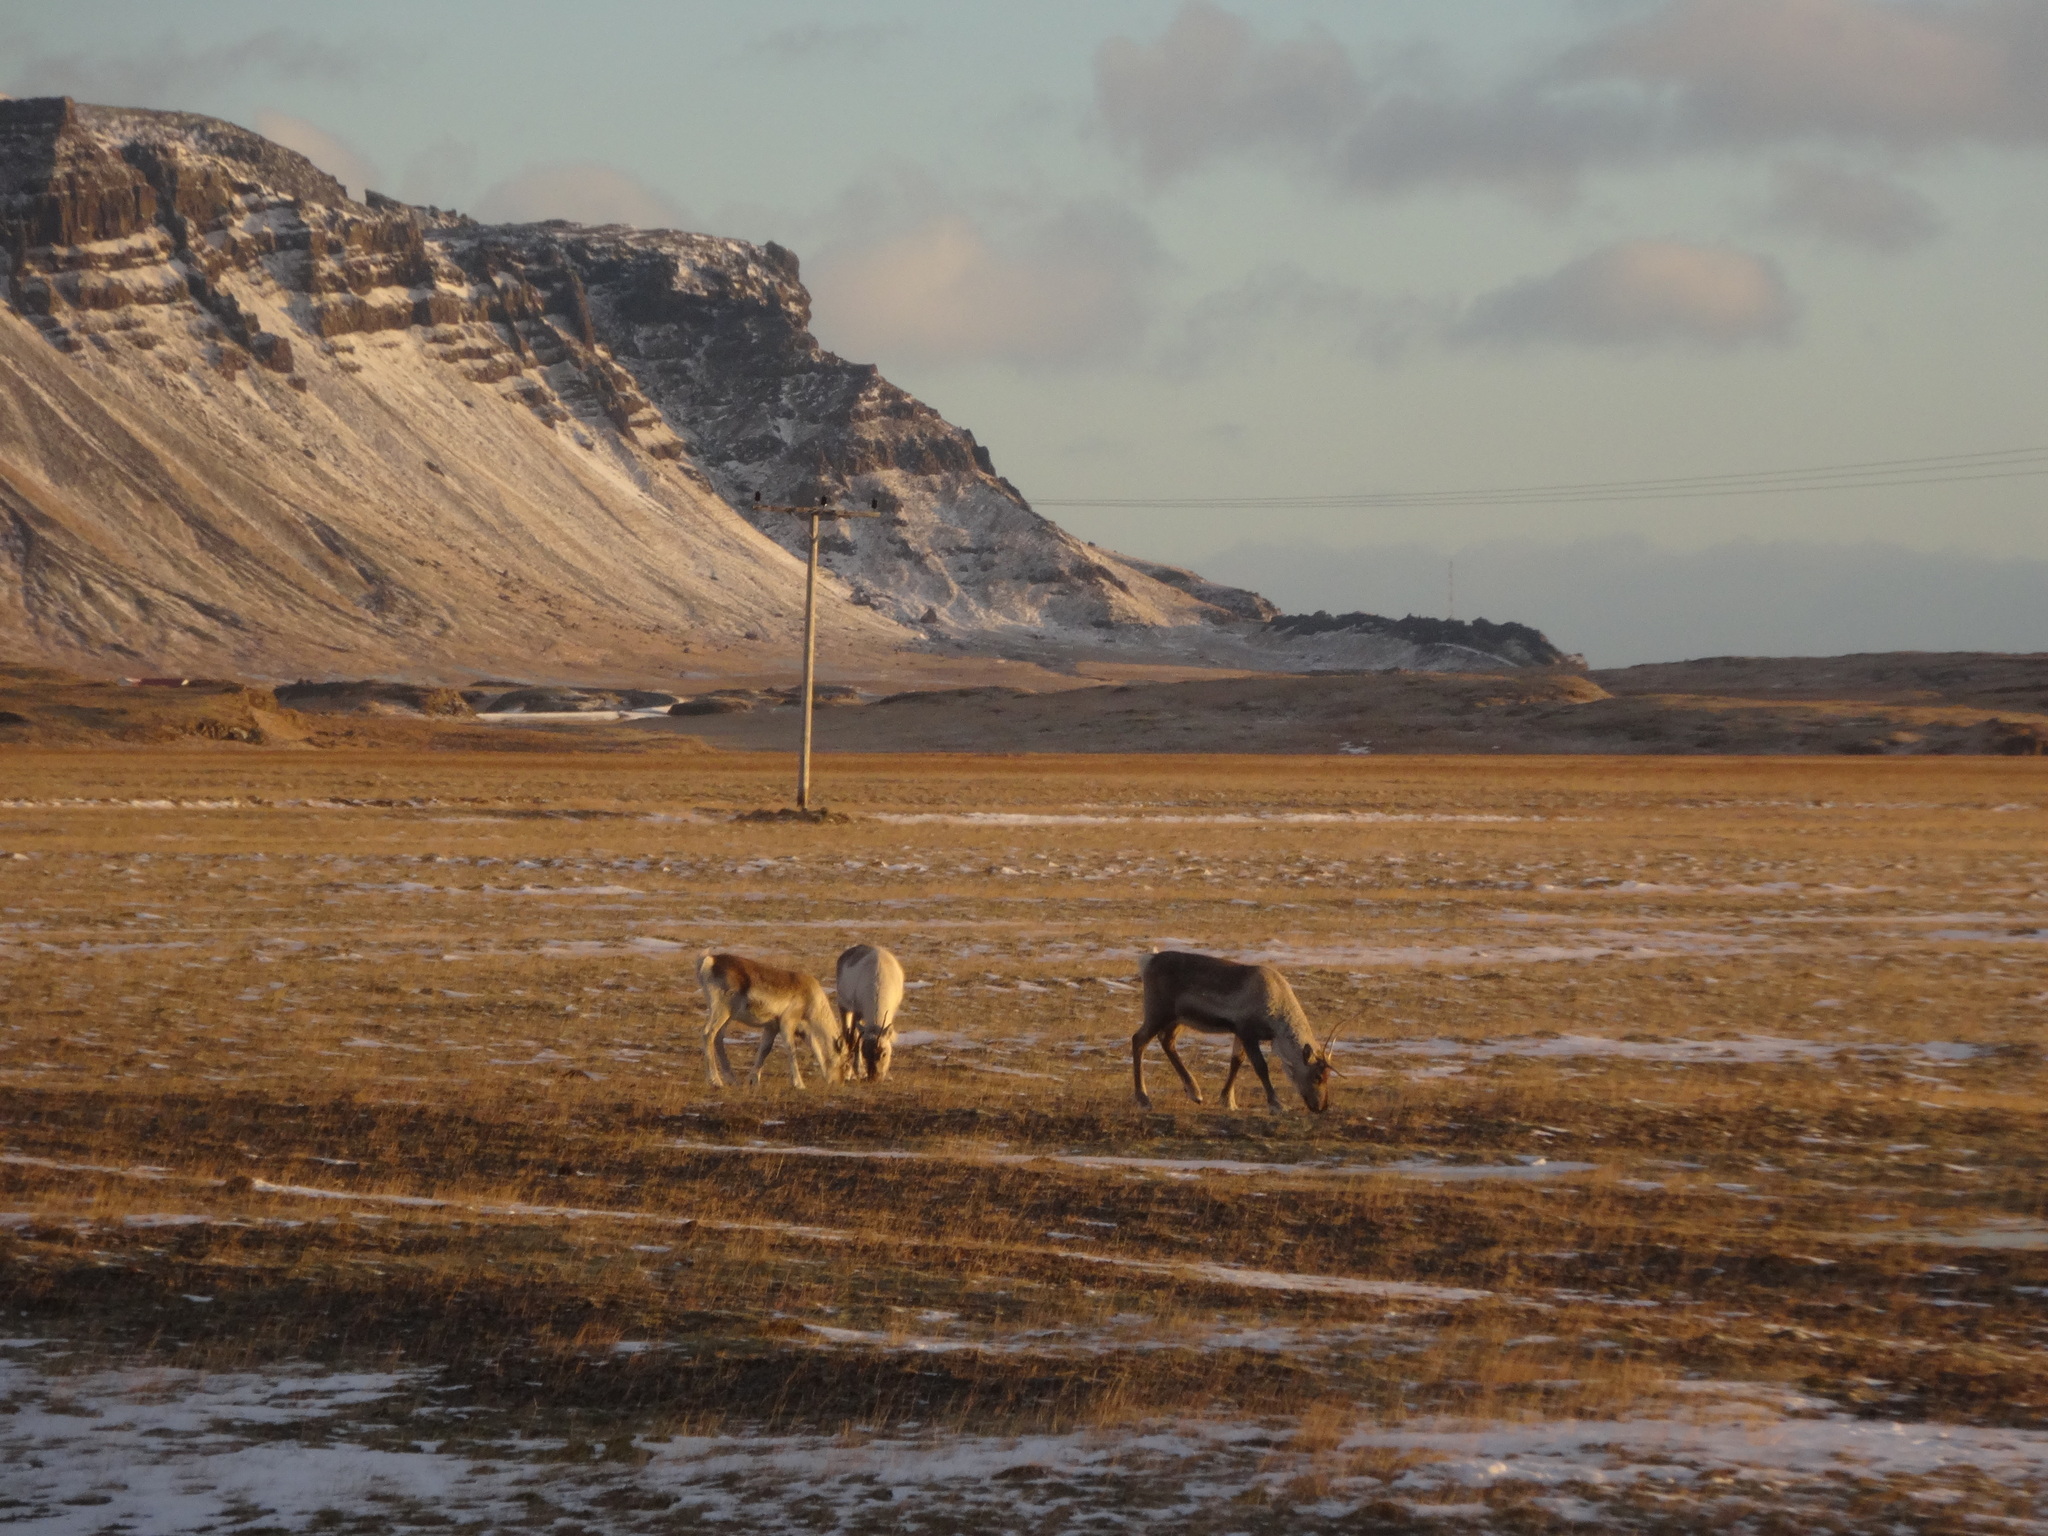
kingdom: Animalia
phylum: Chordata
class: Mammalia
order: Artiodactyla
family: Cervidae
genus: Rangifer
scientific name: Rangifer tarandus
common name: Reindeer
